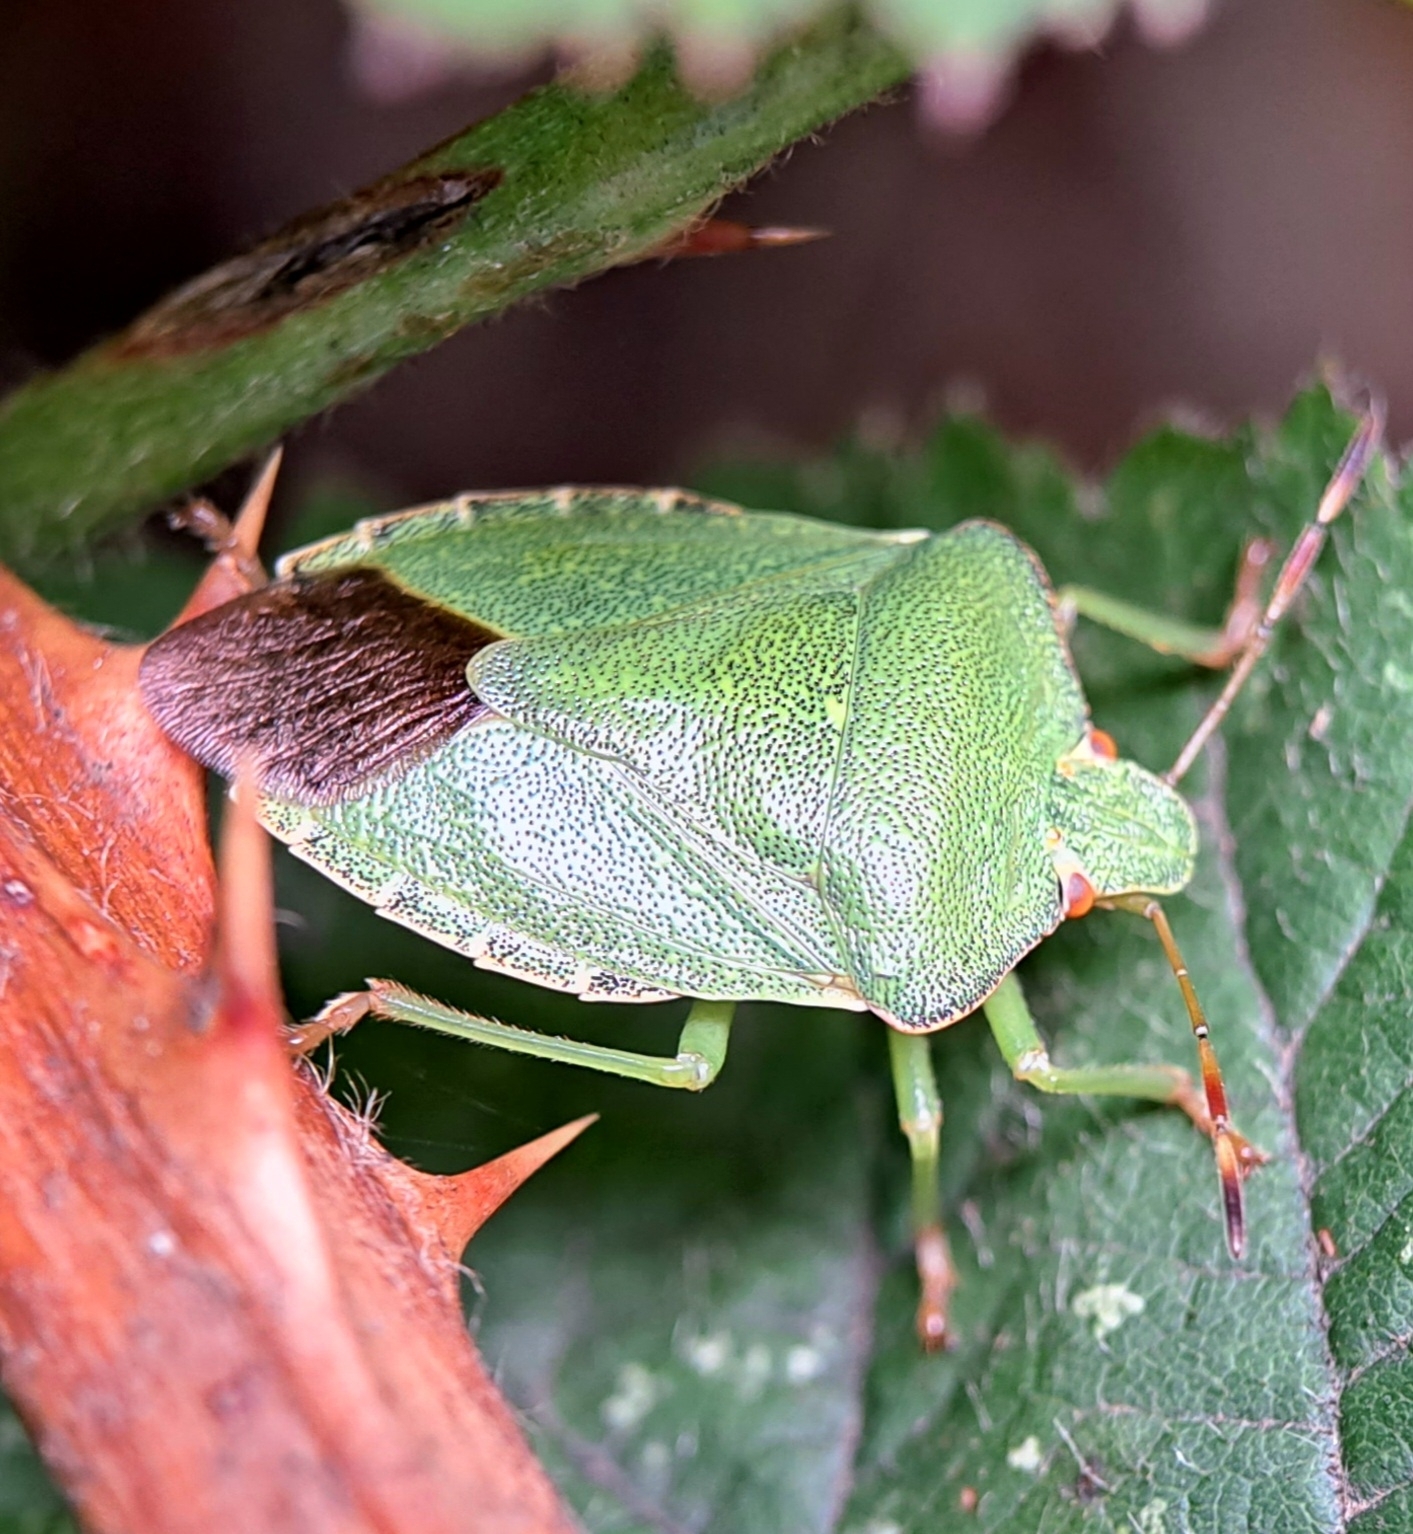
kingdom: Animalia
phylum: Arthropoda
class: Insecta
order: Hemiptera
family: Pentatomidae
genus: Palomena
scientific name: Palomena prasina
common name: Green shieldbug
